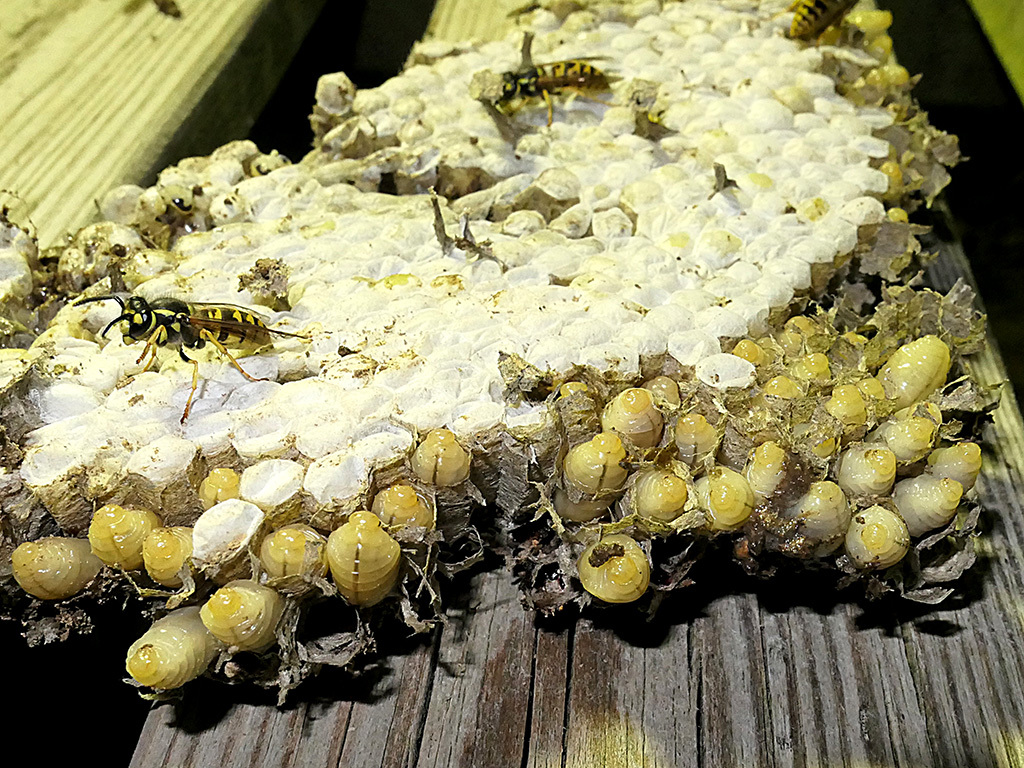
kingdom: Animalia
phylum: Arthropoda
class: Insecta
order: Hymenoptera
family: Vespidae
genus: Vespula
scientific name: Vespula germanica
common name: German wasp
